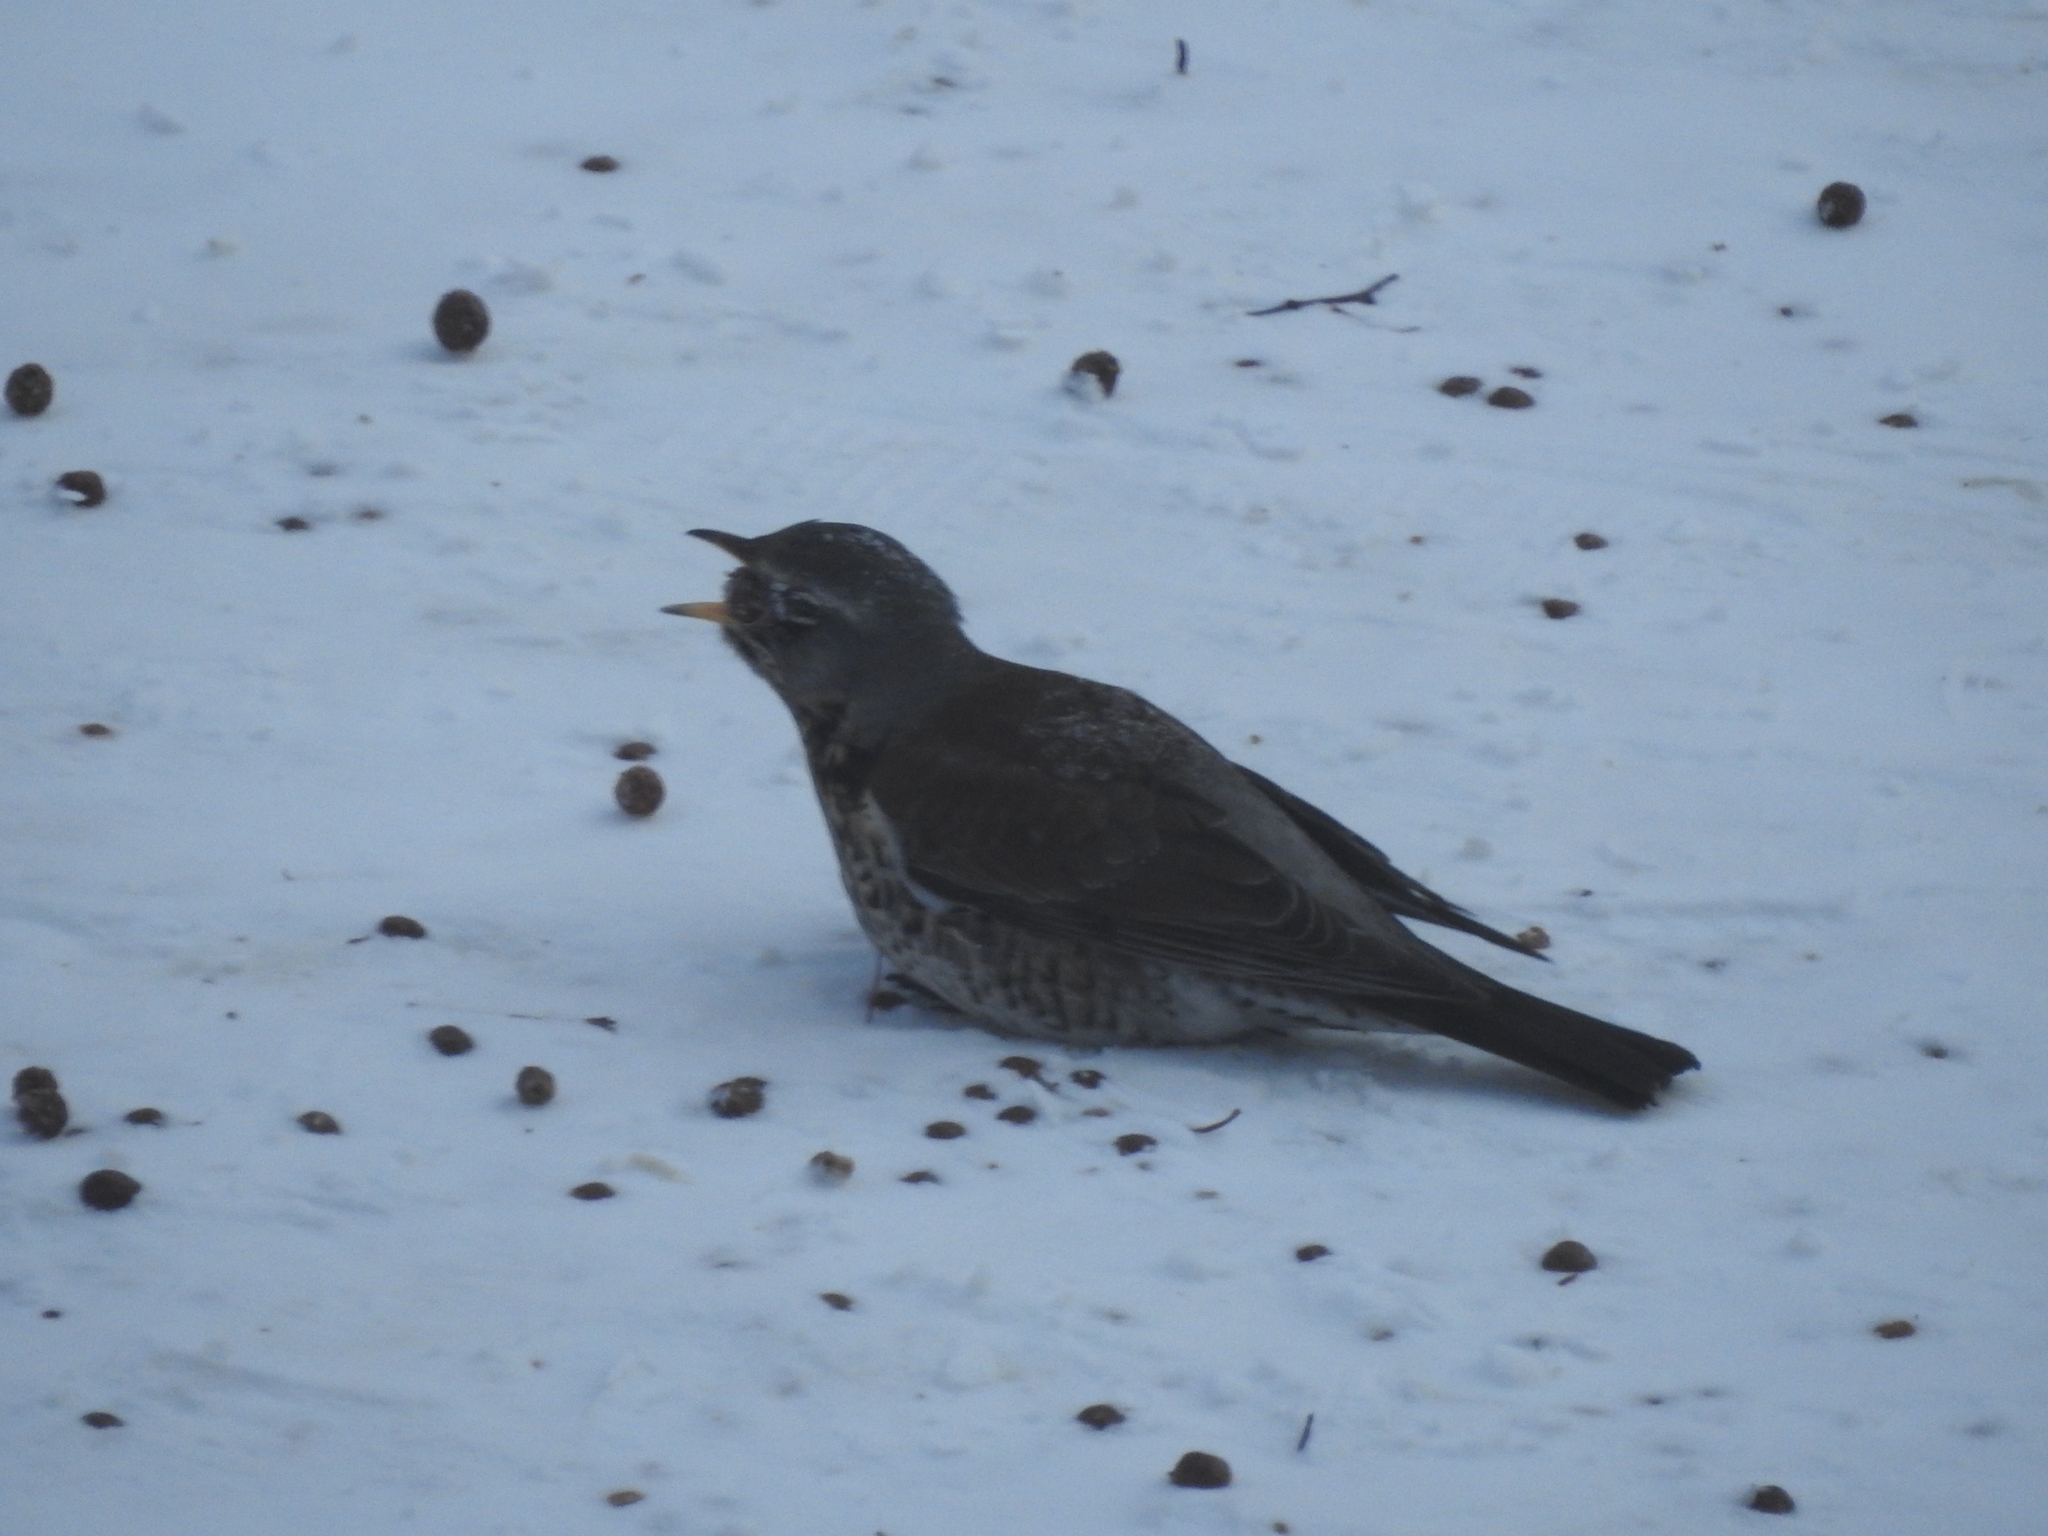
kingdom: Animalia
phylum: Chordata
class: Aves
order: Passeriformes
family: Turdidae
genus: Turdus
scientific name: Turdus pilaris
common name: Fieldfare
